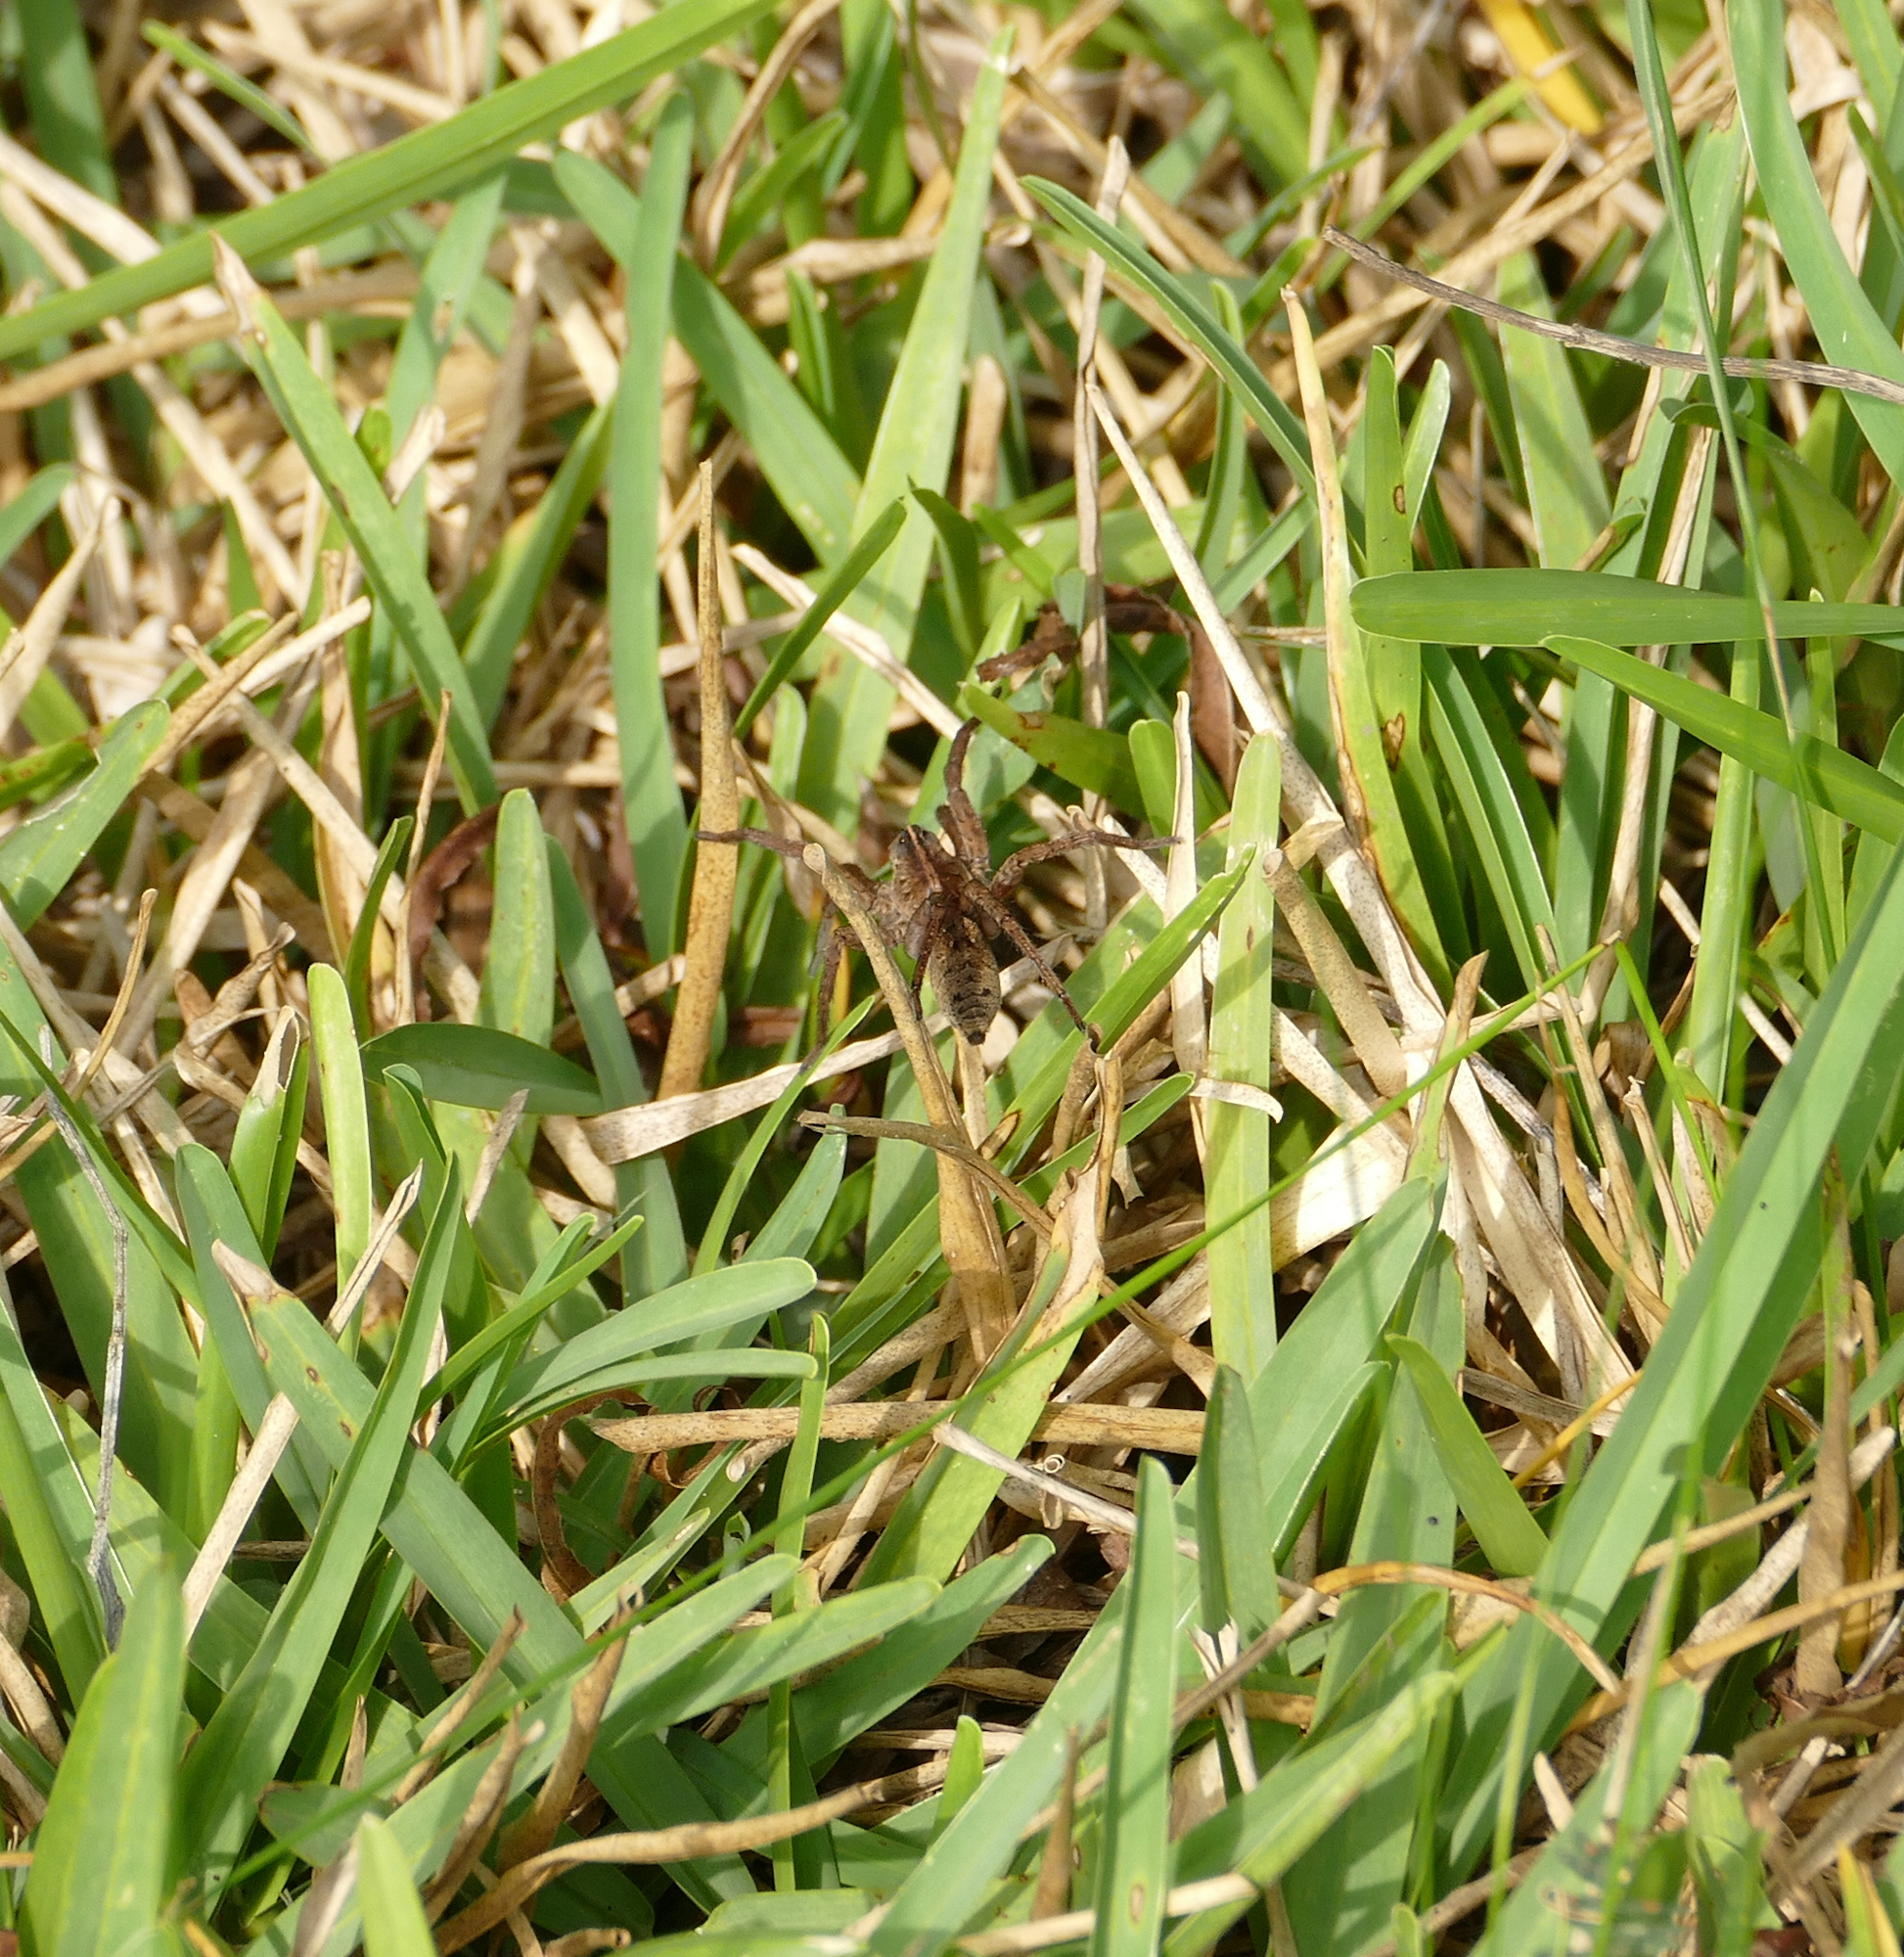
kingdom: Animalia
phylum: Arthropoda
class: Arachnida
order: Araneae
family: Lycosidae
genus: Tigrosa
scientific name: Tigrosa georgicola
